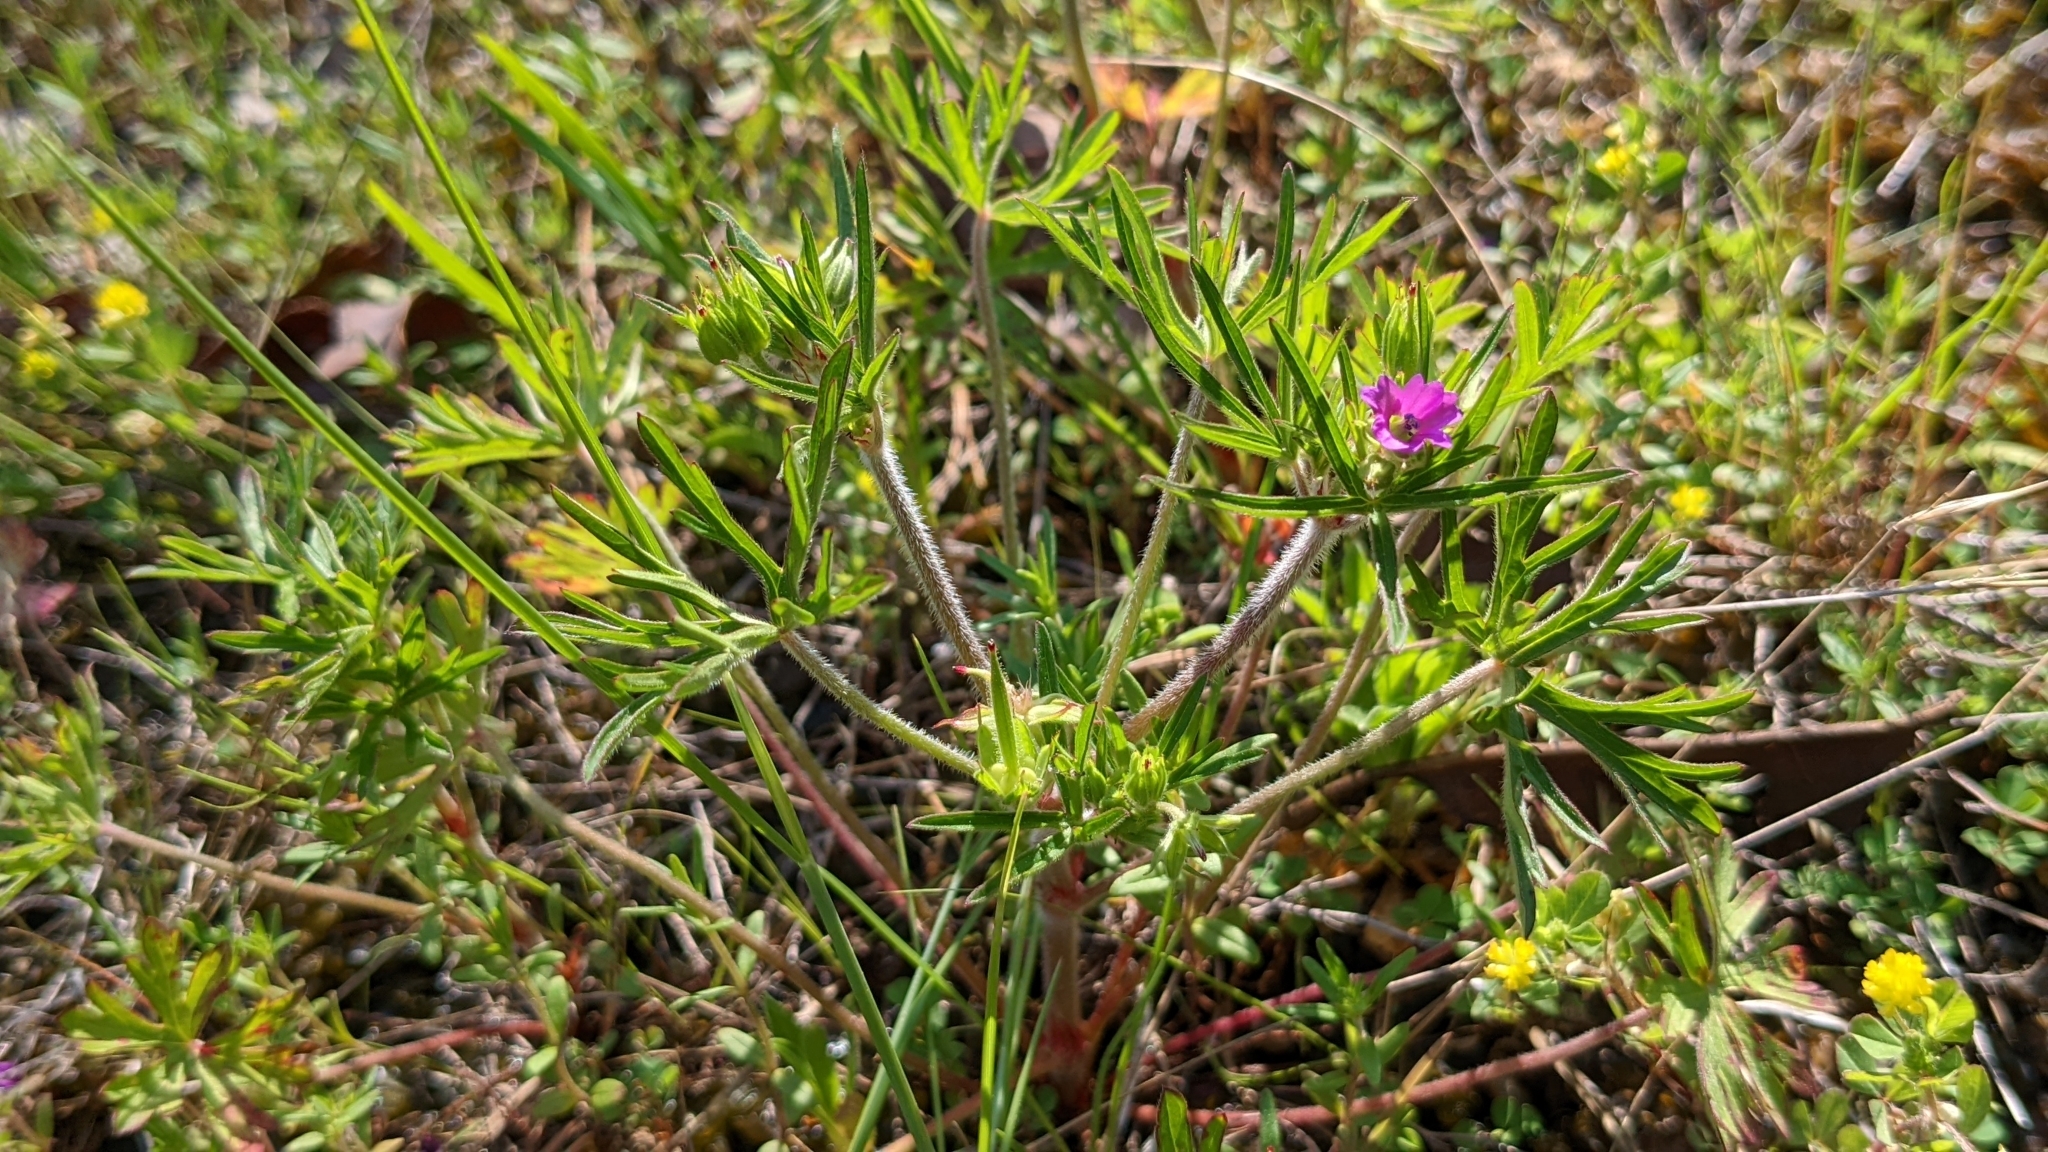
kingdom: Plantae
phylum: Tracheophyta
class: Magnoliopsida
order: Geraniales
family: Geraniaceae
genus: Geranium
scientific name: Geranium dissectum
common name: Cut-leaved crane's-bill
